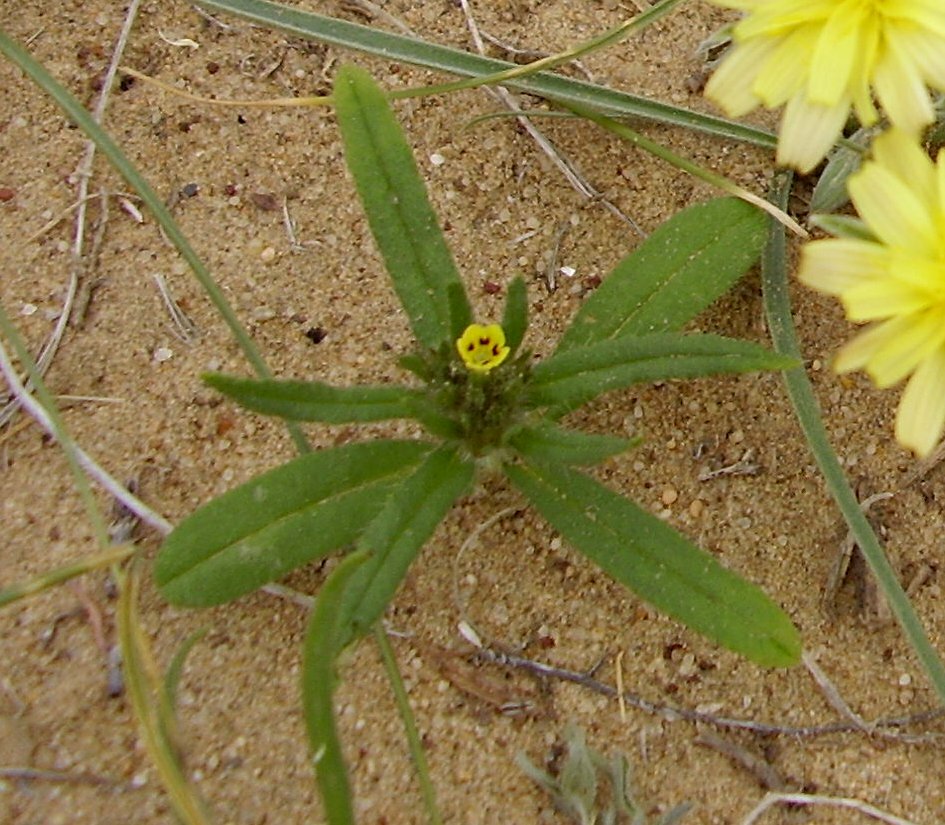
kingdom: Plantae
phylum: Tracheophyta
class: Magnoliopsida
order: Boraginales
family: Boraginaceae
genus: Arnebia
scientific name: Arnebia decumbens
